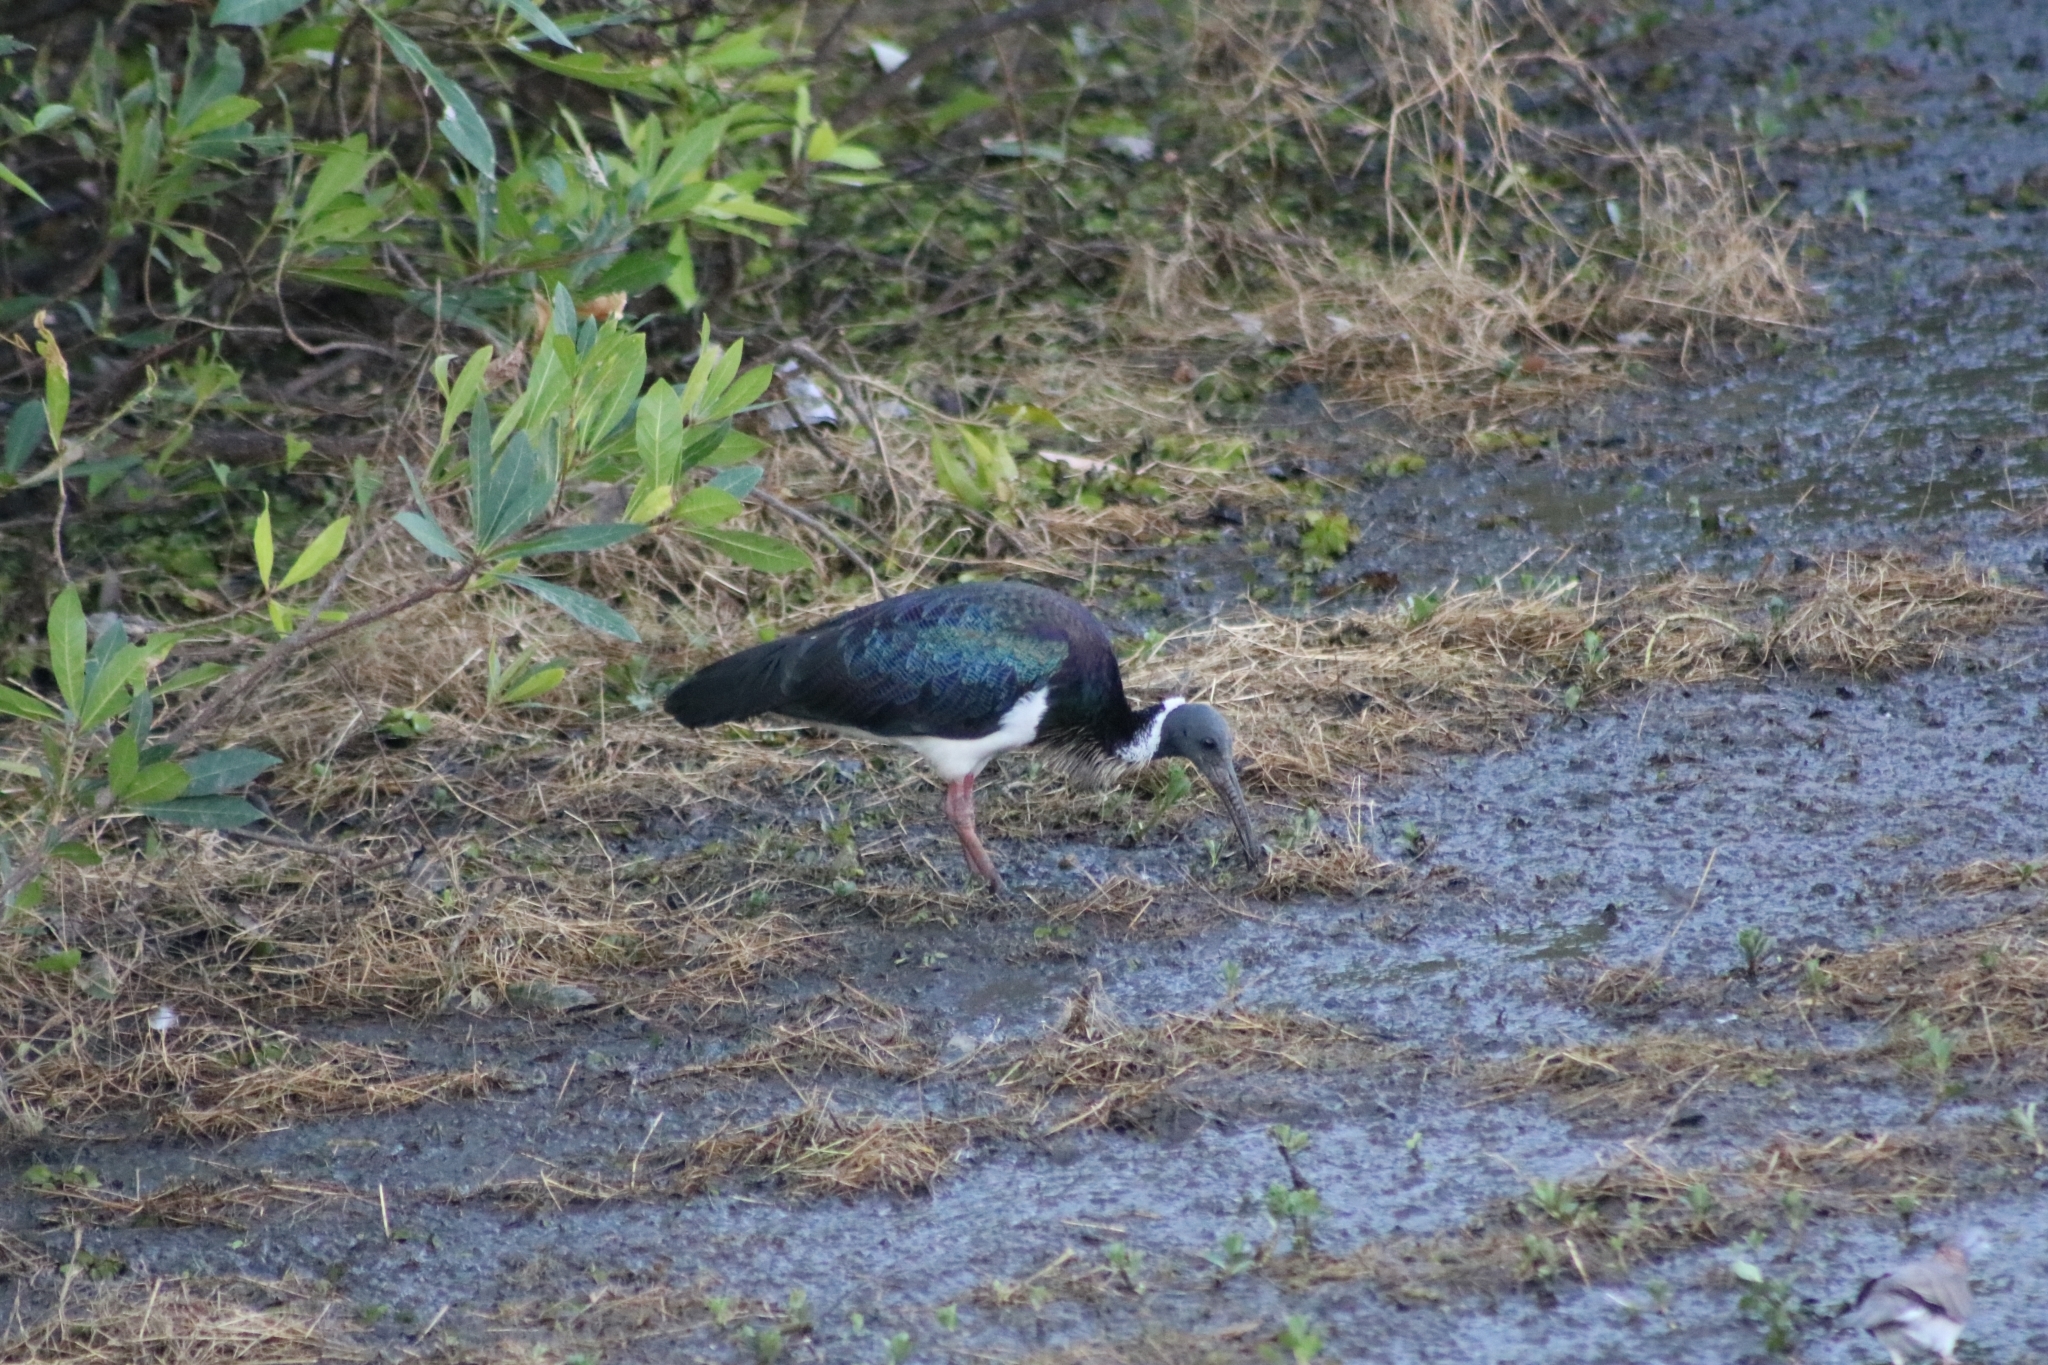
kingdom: Animalia
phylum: Chordata
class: Aves
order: Pelecaniformes
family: Threskiornithidae
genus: Threskiornis
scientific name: Threskiornis spinicollis
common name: Straw-necked ibis
